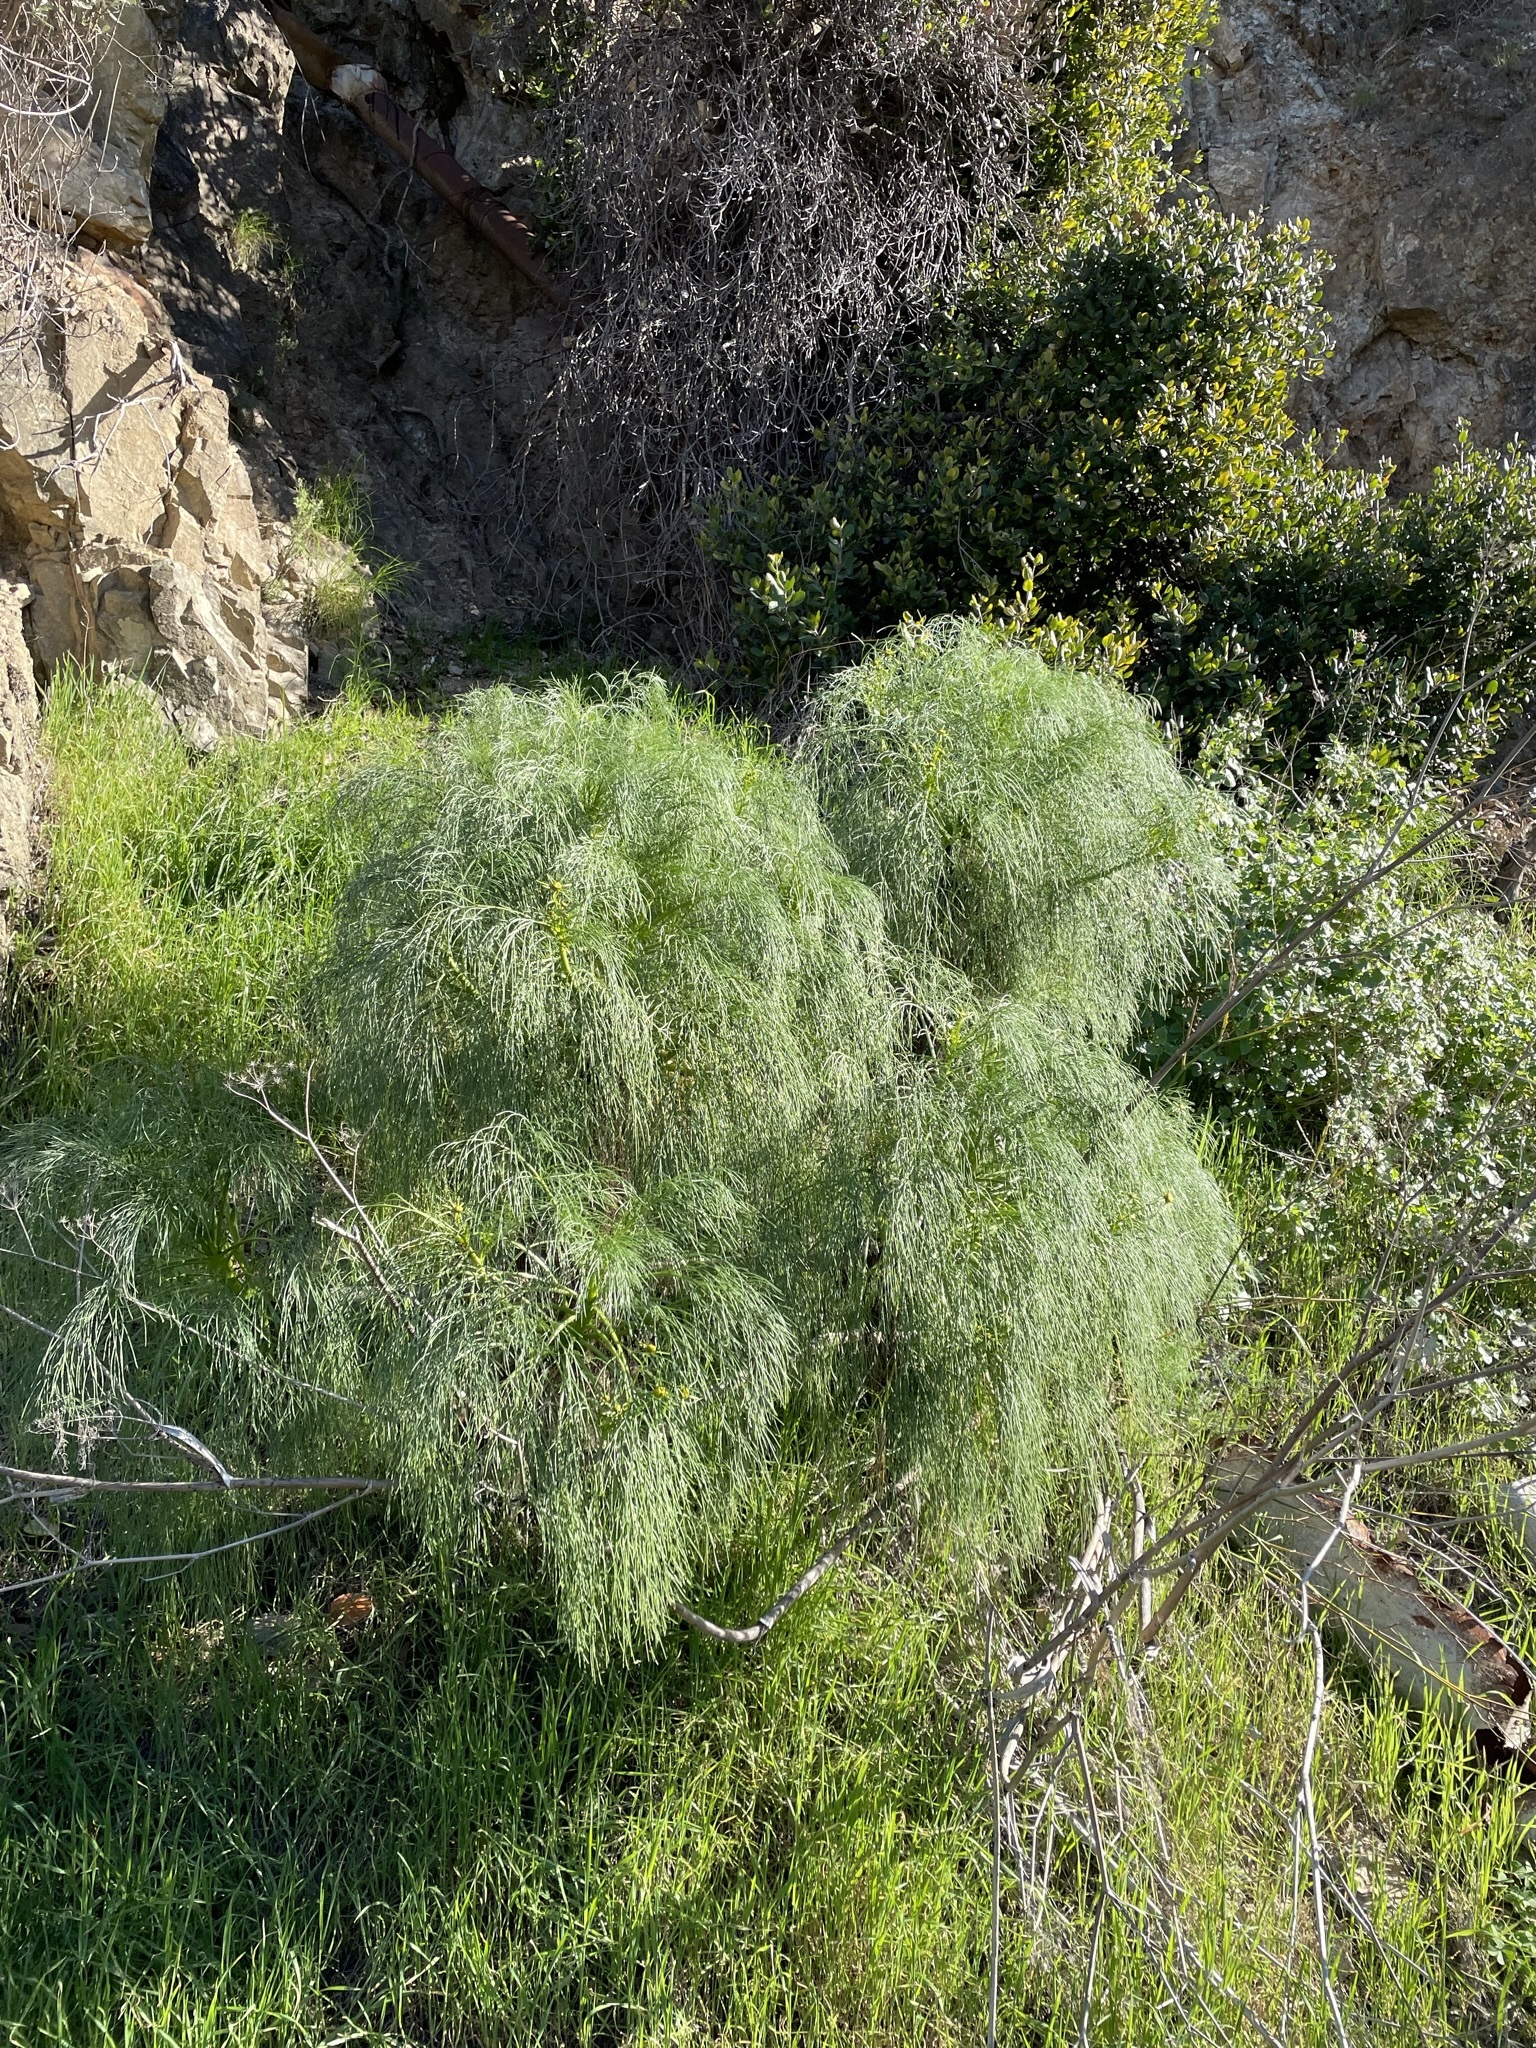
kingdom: Plantae
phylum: Tracheophyta
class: Magnoliopsida
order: Asterales
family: Asteraceae
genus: Coreopsis
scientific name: Coreopsis gigantea
